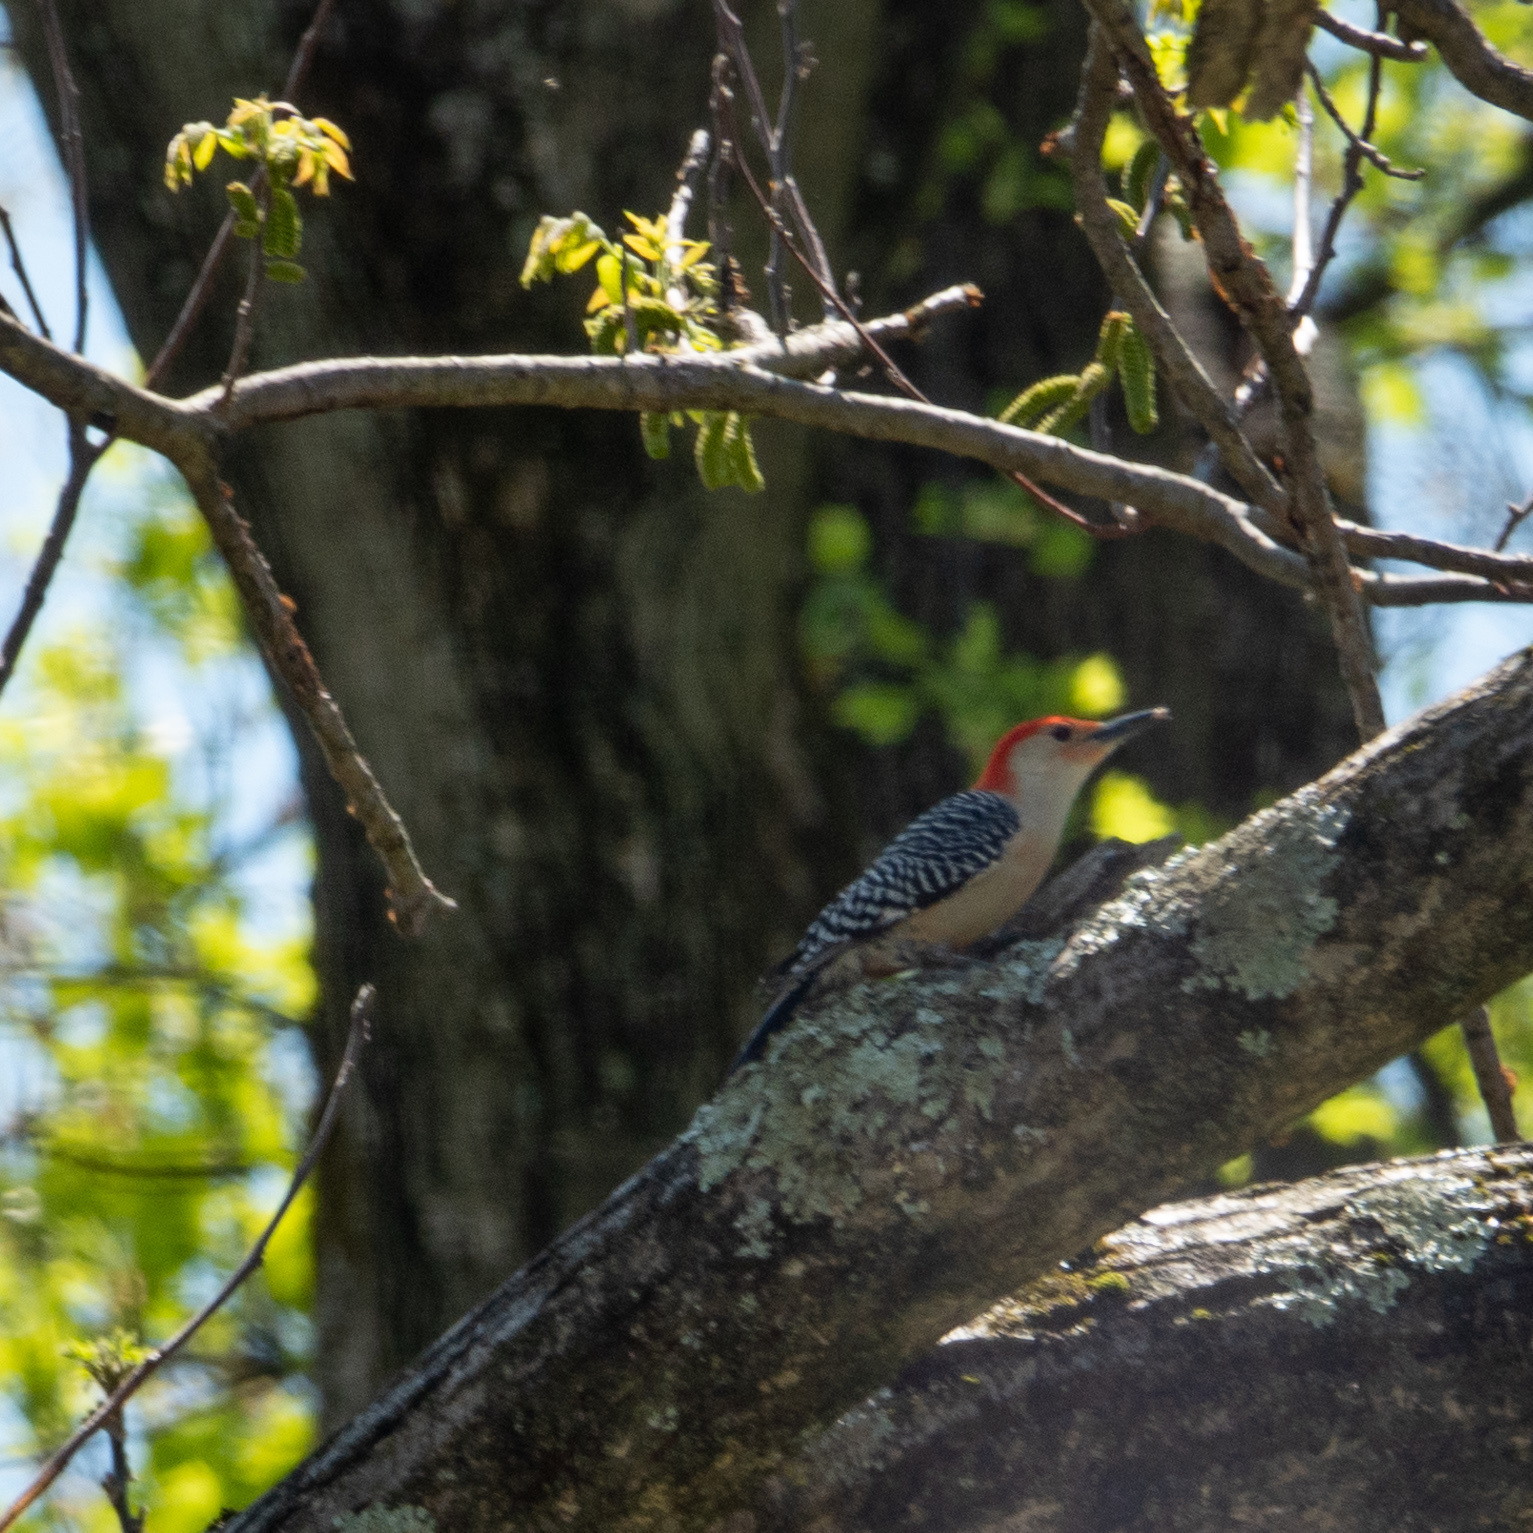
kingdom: Animalia
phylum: Chordata
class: Aves
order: Piciformes
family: Picidae
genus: Melanerpes
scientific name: Melanerpes carolinus
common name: Red-bellied woodpecker
